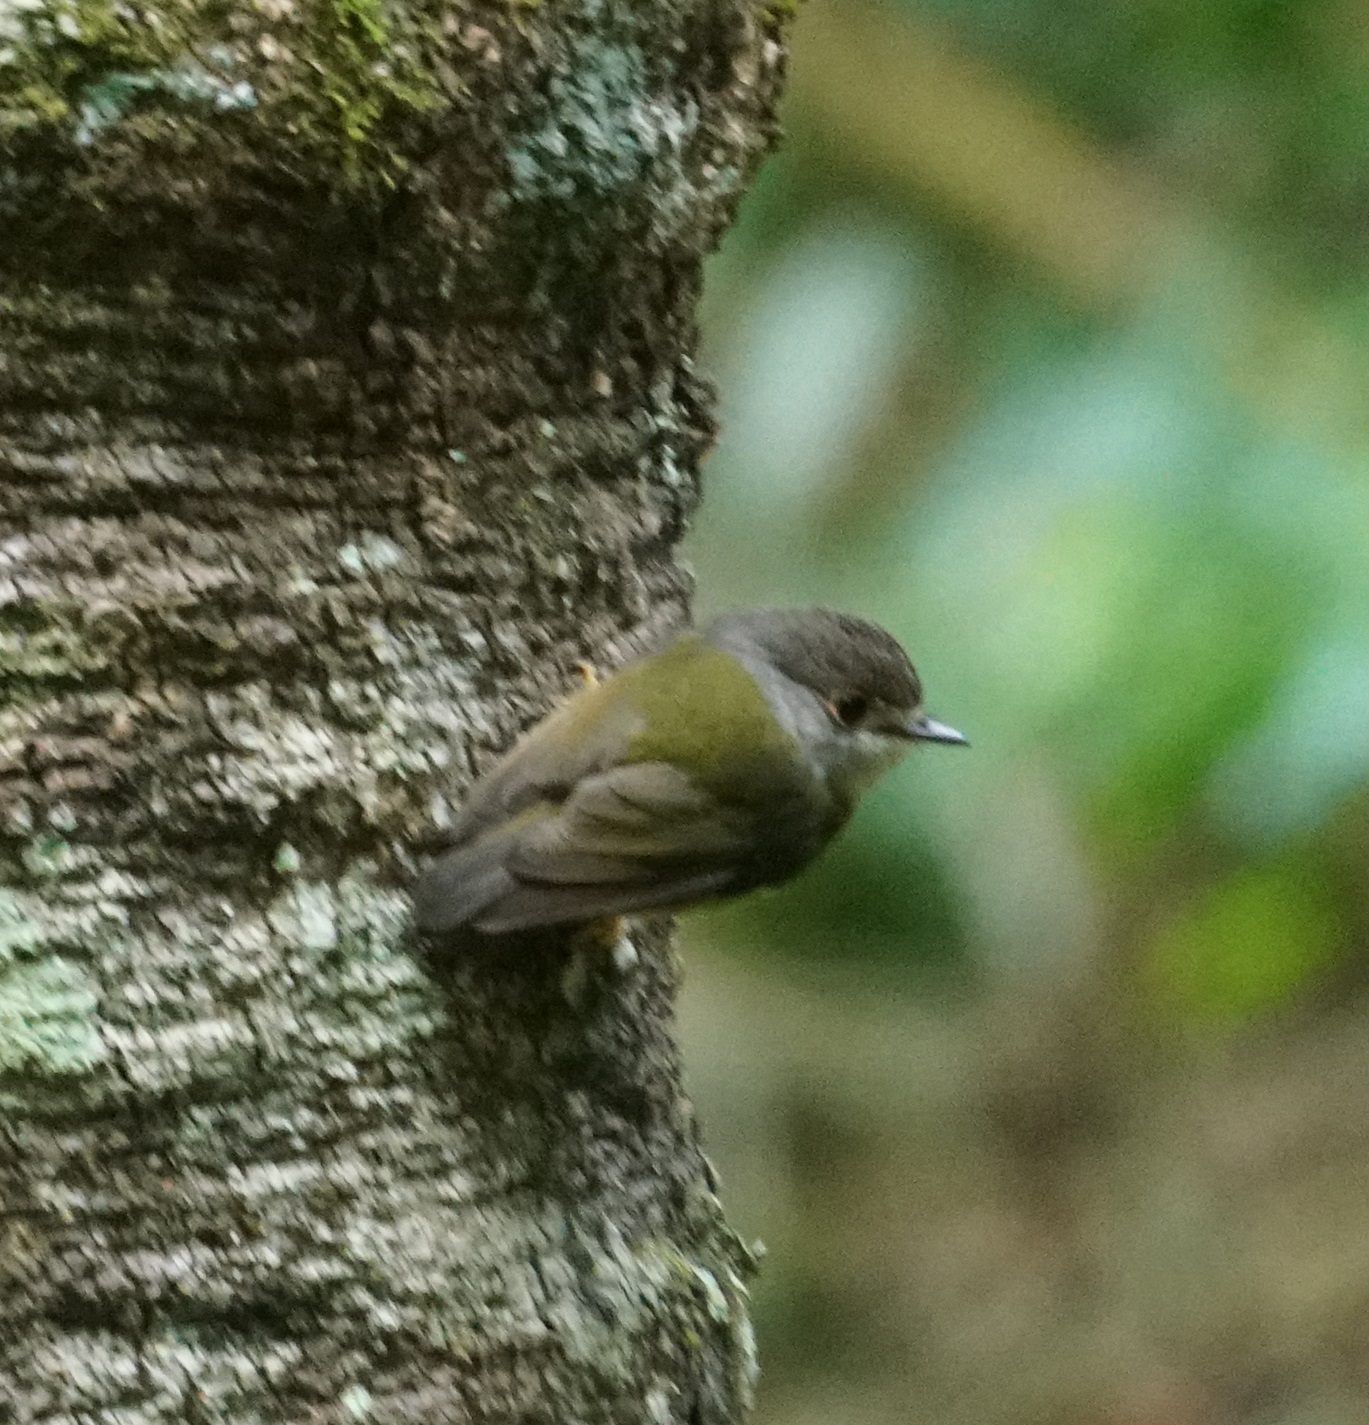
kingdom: Animalia
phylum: Chordata
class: Aves
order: Passeriformes
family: Petroicidae
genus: Eopsaltria
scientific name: Eopsaltria
